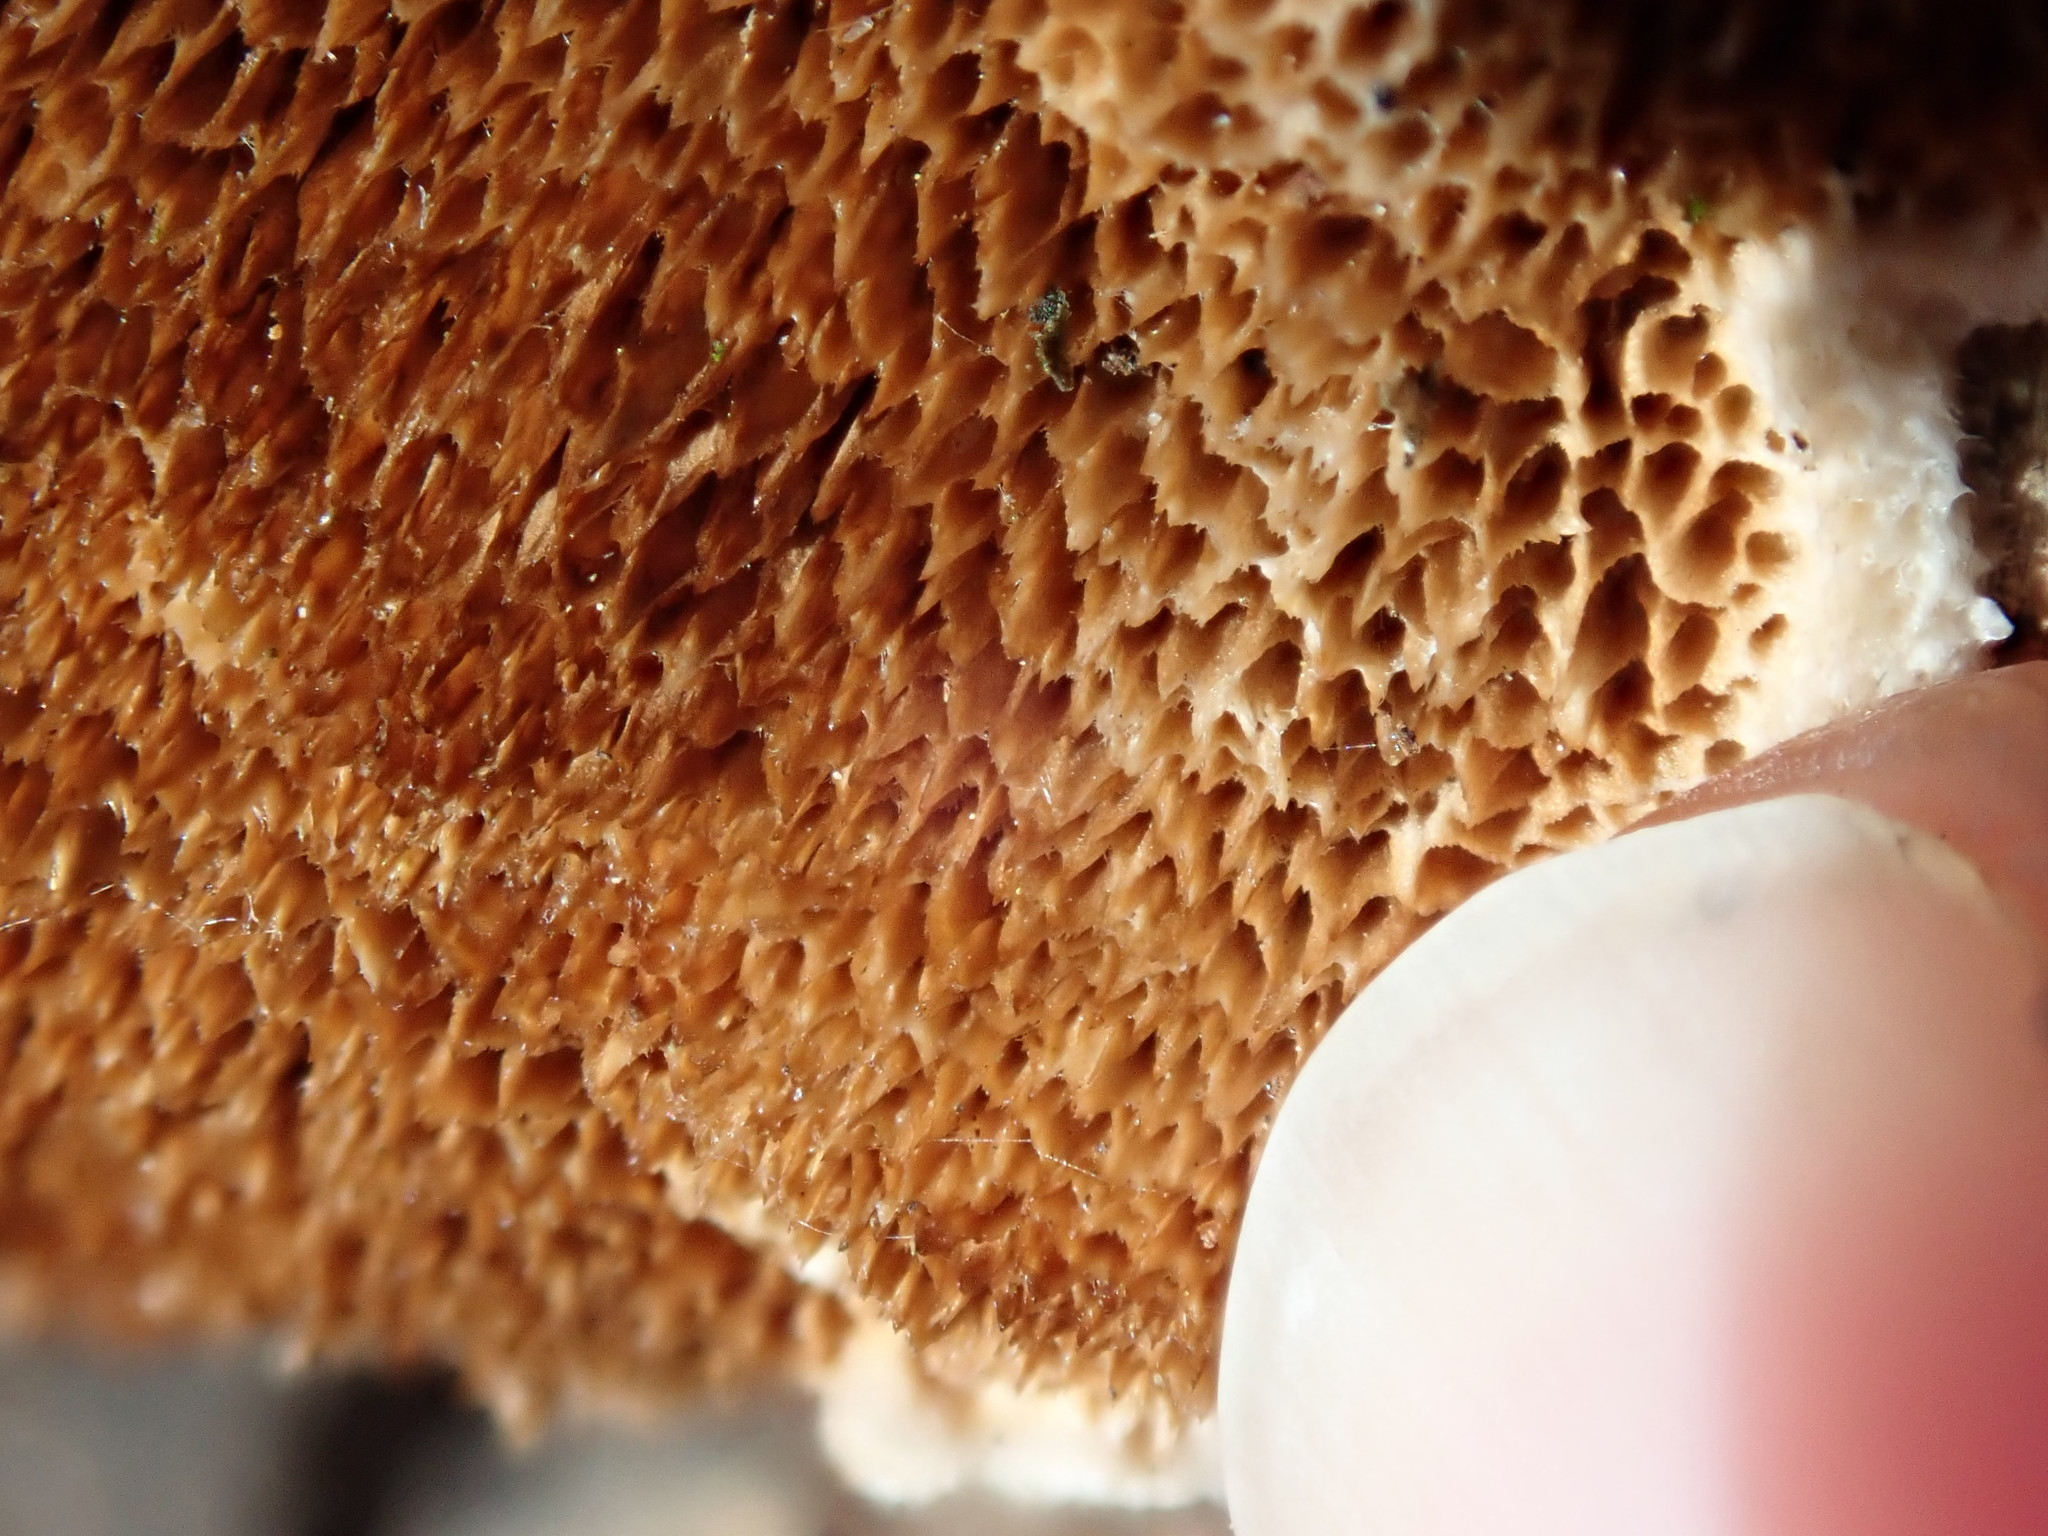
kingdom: Fungi
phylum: Basidiomycota
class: Agaricomycetes
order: Polyporales
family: Steccherinaceae
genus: Steccherinum
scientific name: Steccherinum ochraceum
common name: Ochre spreading tooth
